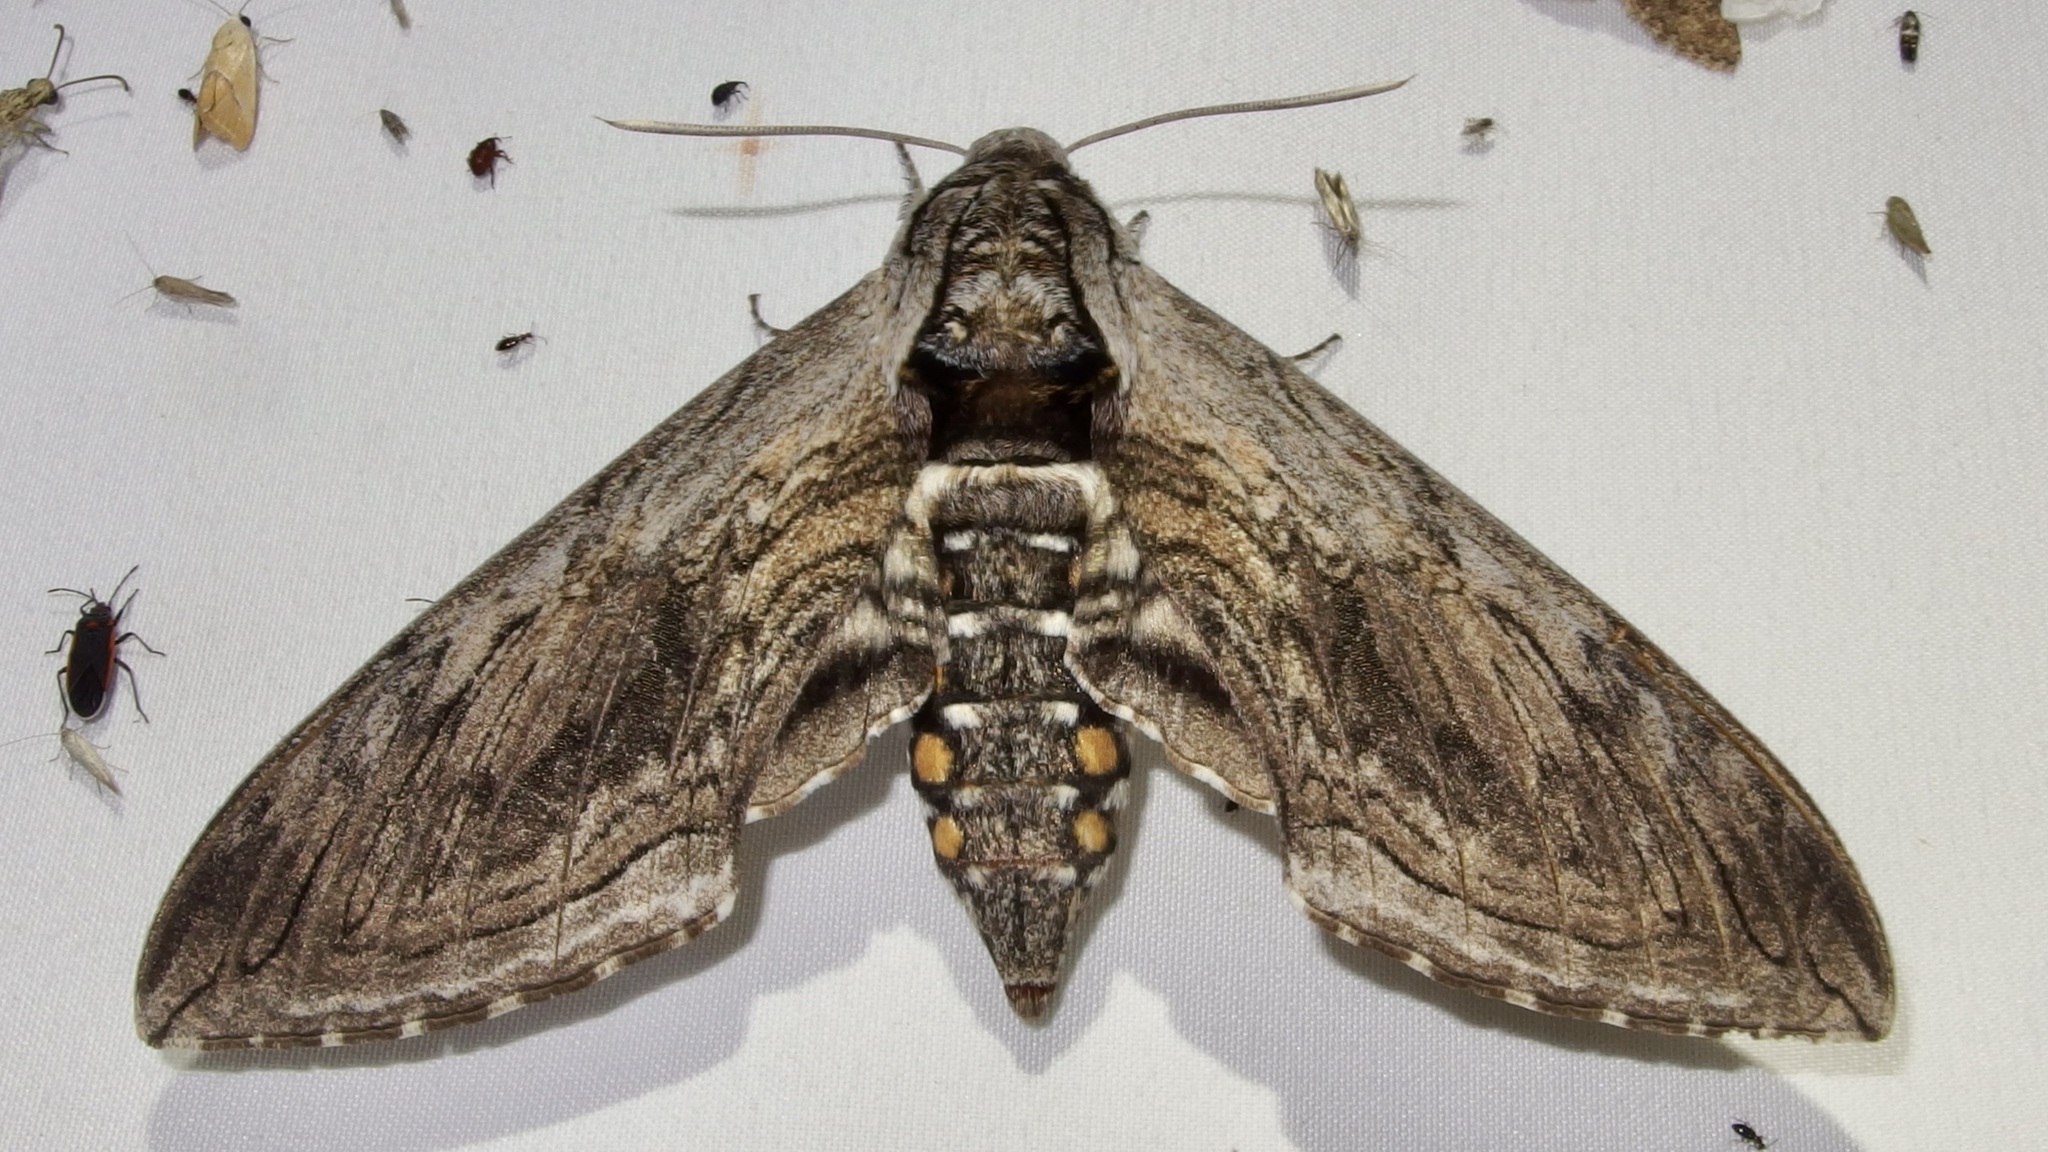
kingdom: Animalia
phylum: Arthropoda
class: Insecta
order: Lepidoptera
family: Sphingidae
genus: Manduca
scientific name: Manduca quinquemaculatus
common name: Five-spotted hawk-moth
